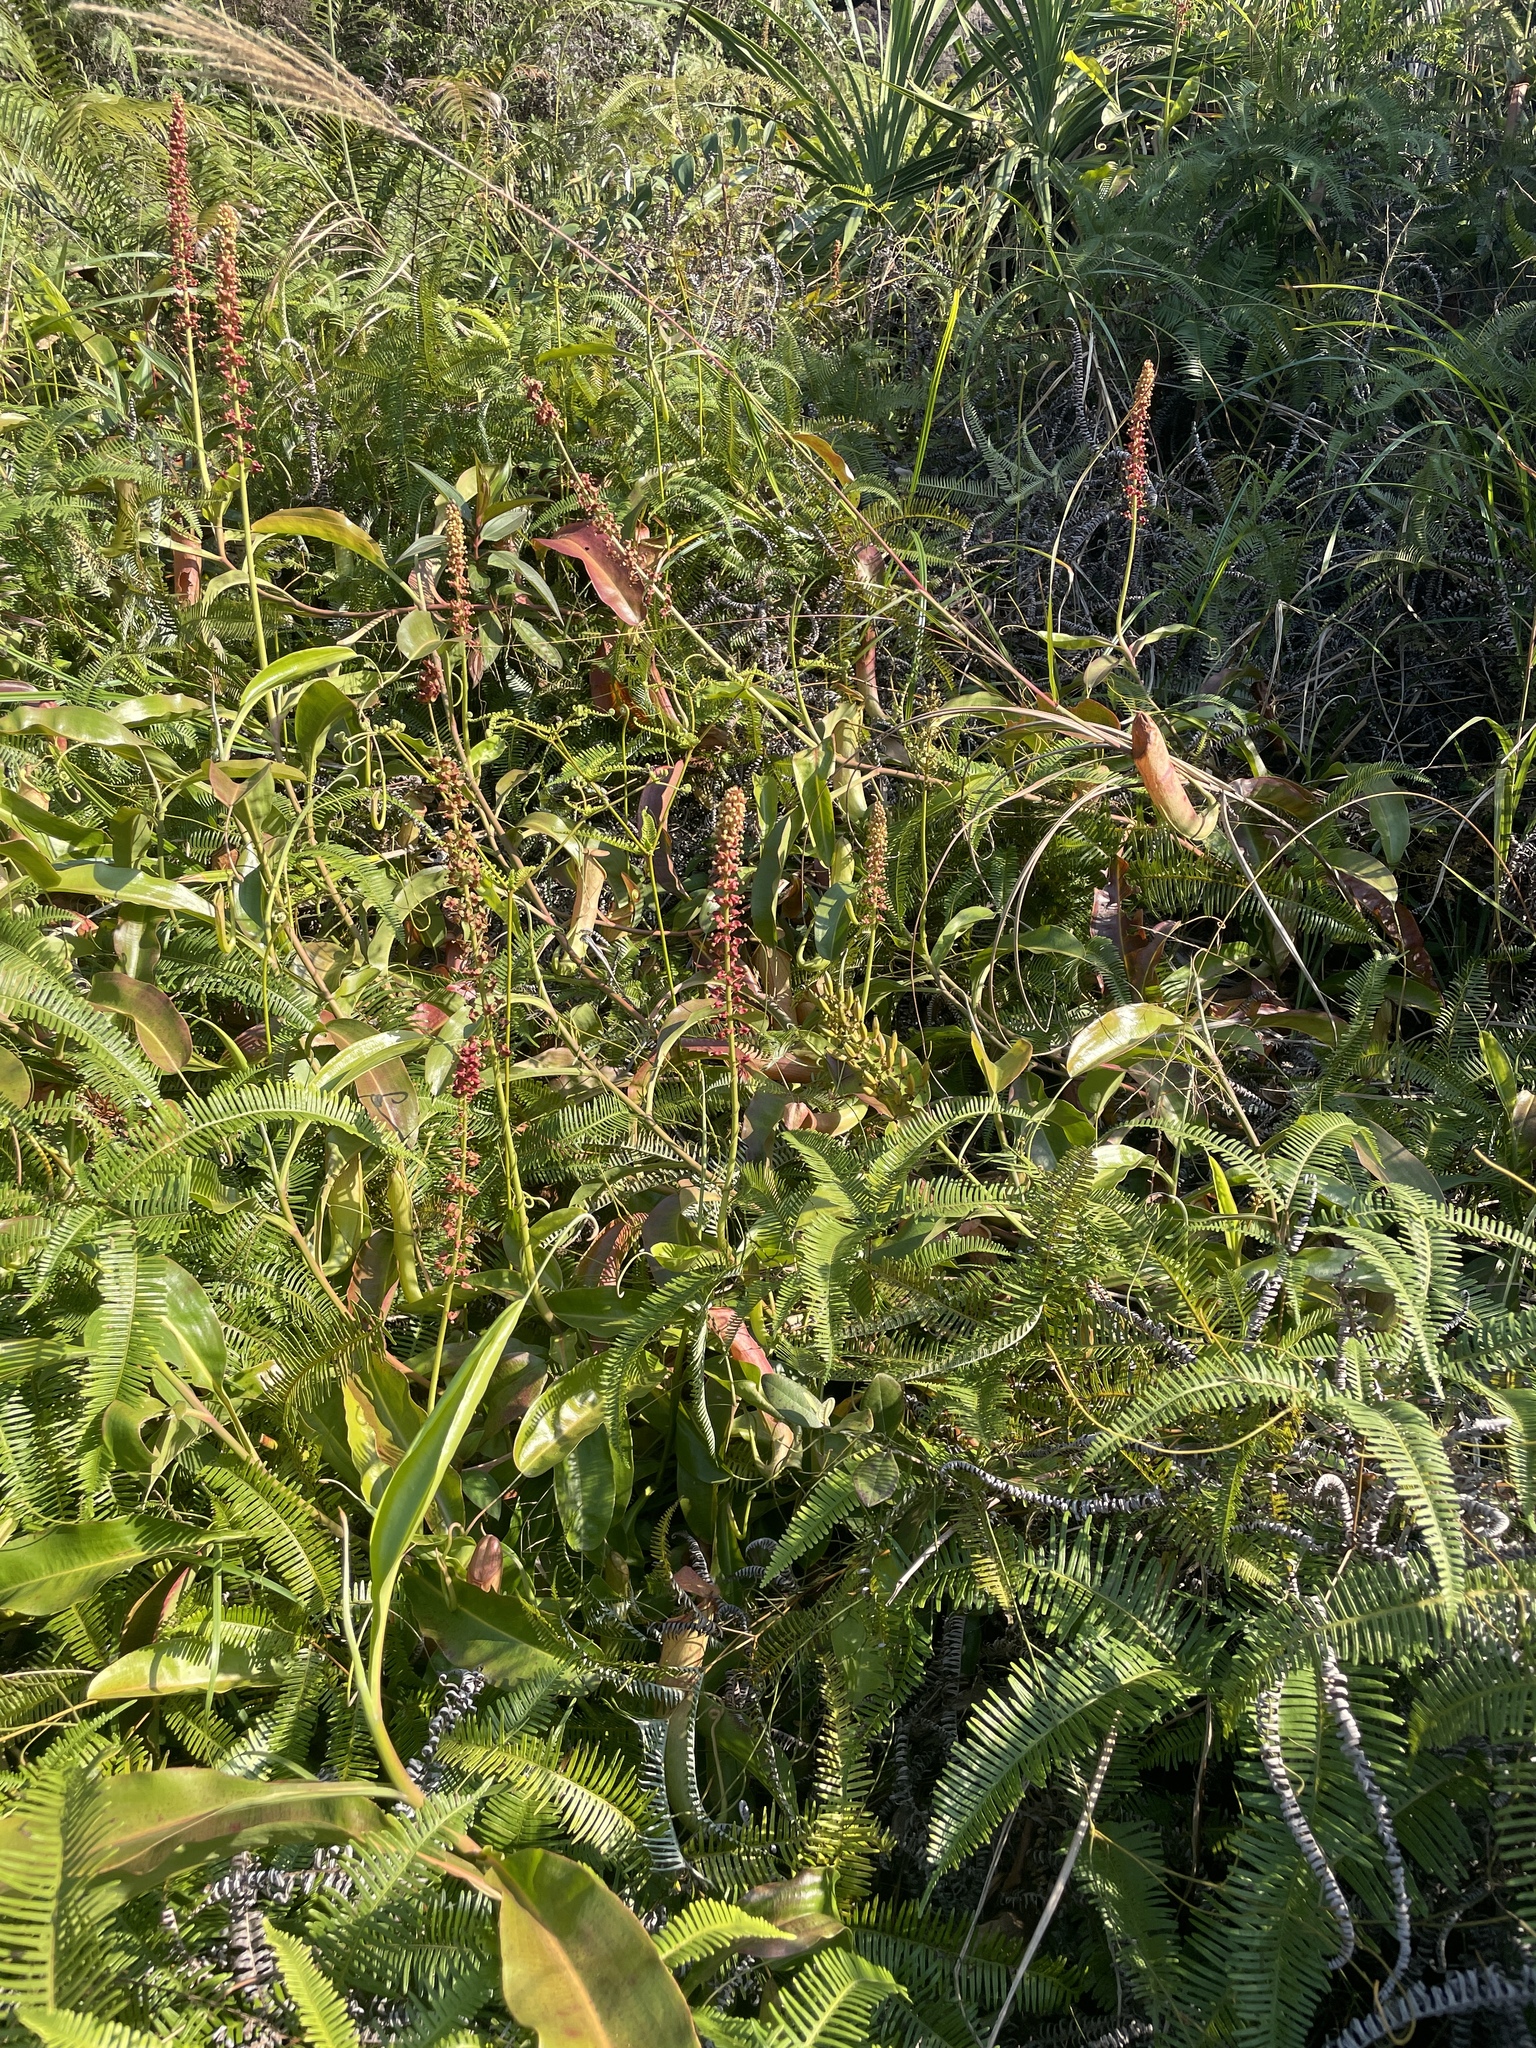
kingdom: Plantae
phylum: Tracheophyta
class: Magnoliopsida
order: Caryophyllales
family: Nepenthaceae
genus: Nepenthes
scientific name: Nepenthes mirabilis
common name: Tropical pitcherplant
